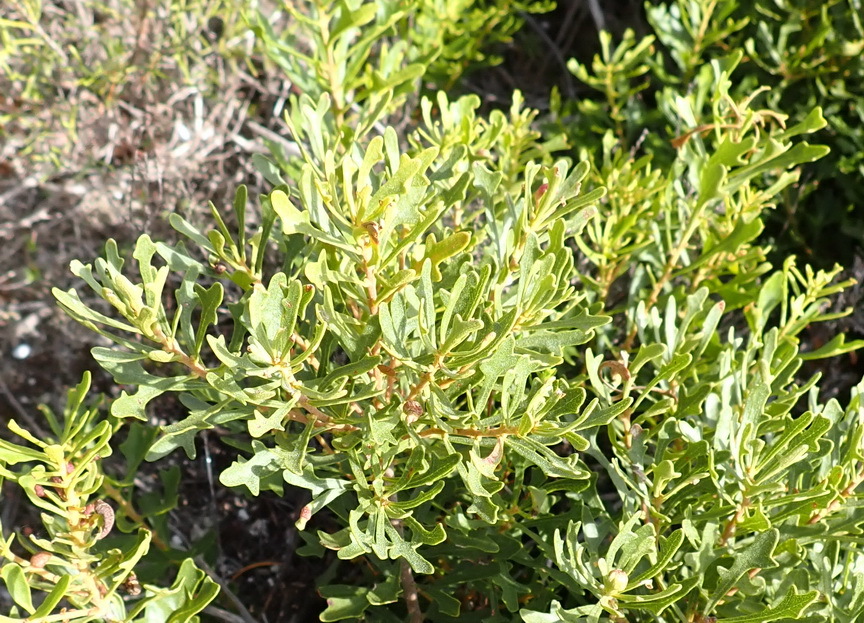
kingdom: Plantae
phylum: Tracheophyta
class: Magnoliopsida
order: Fagales
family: Myricaceae
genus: Morella
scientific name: Morella quercifolia
